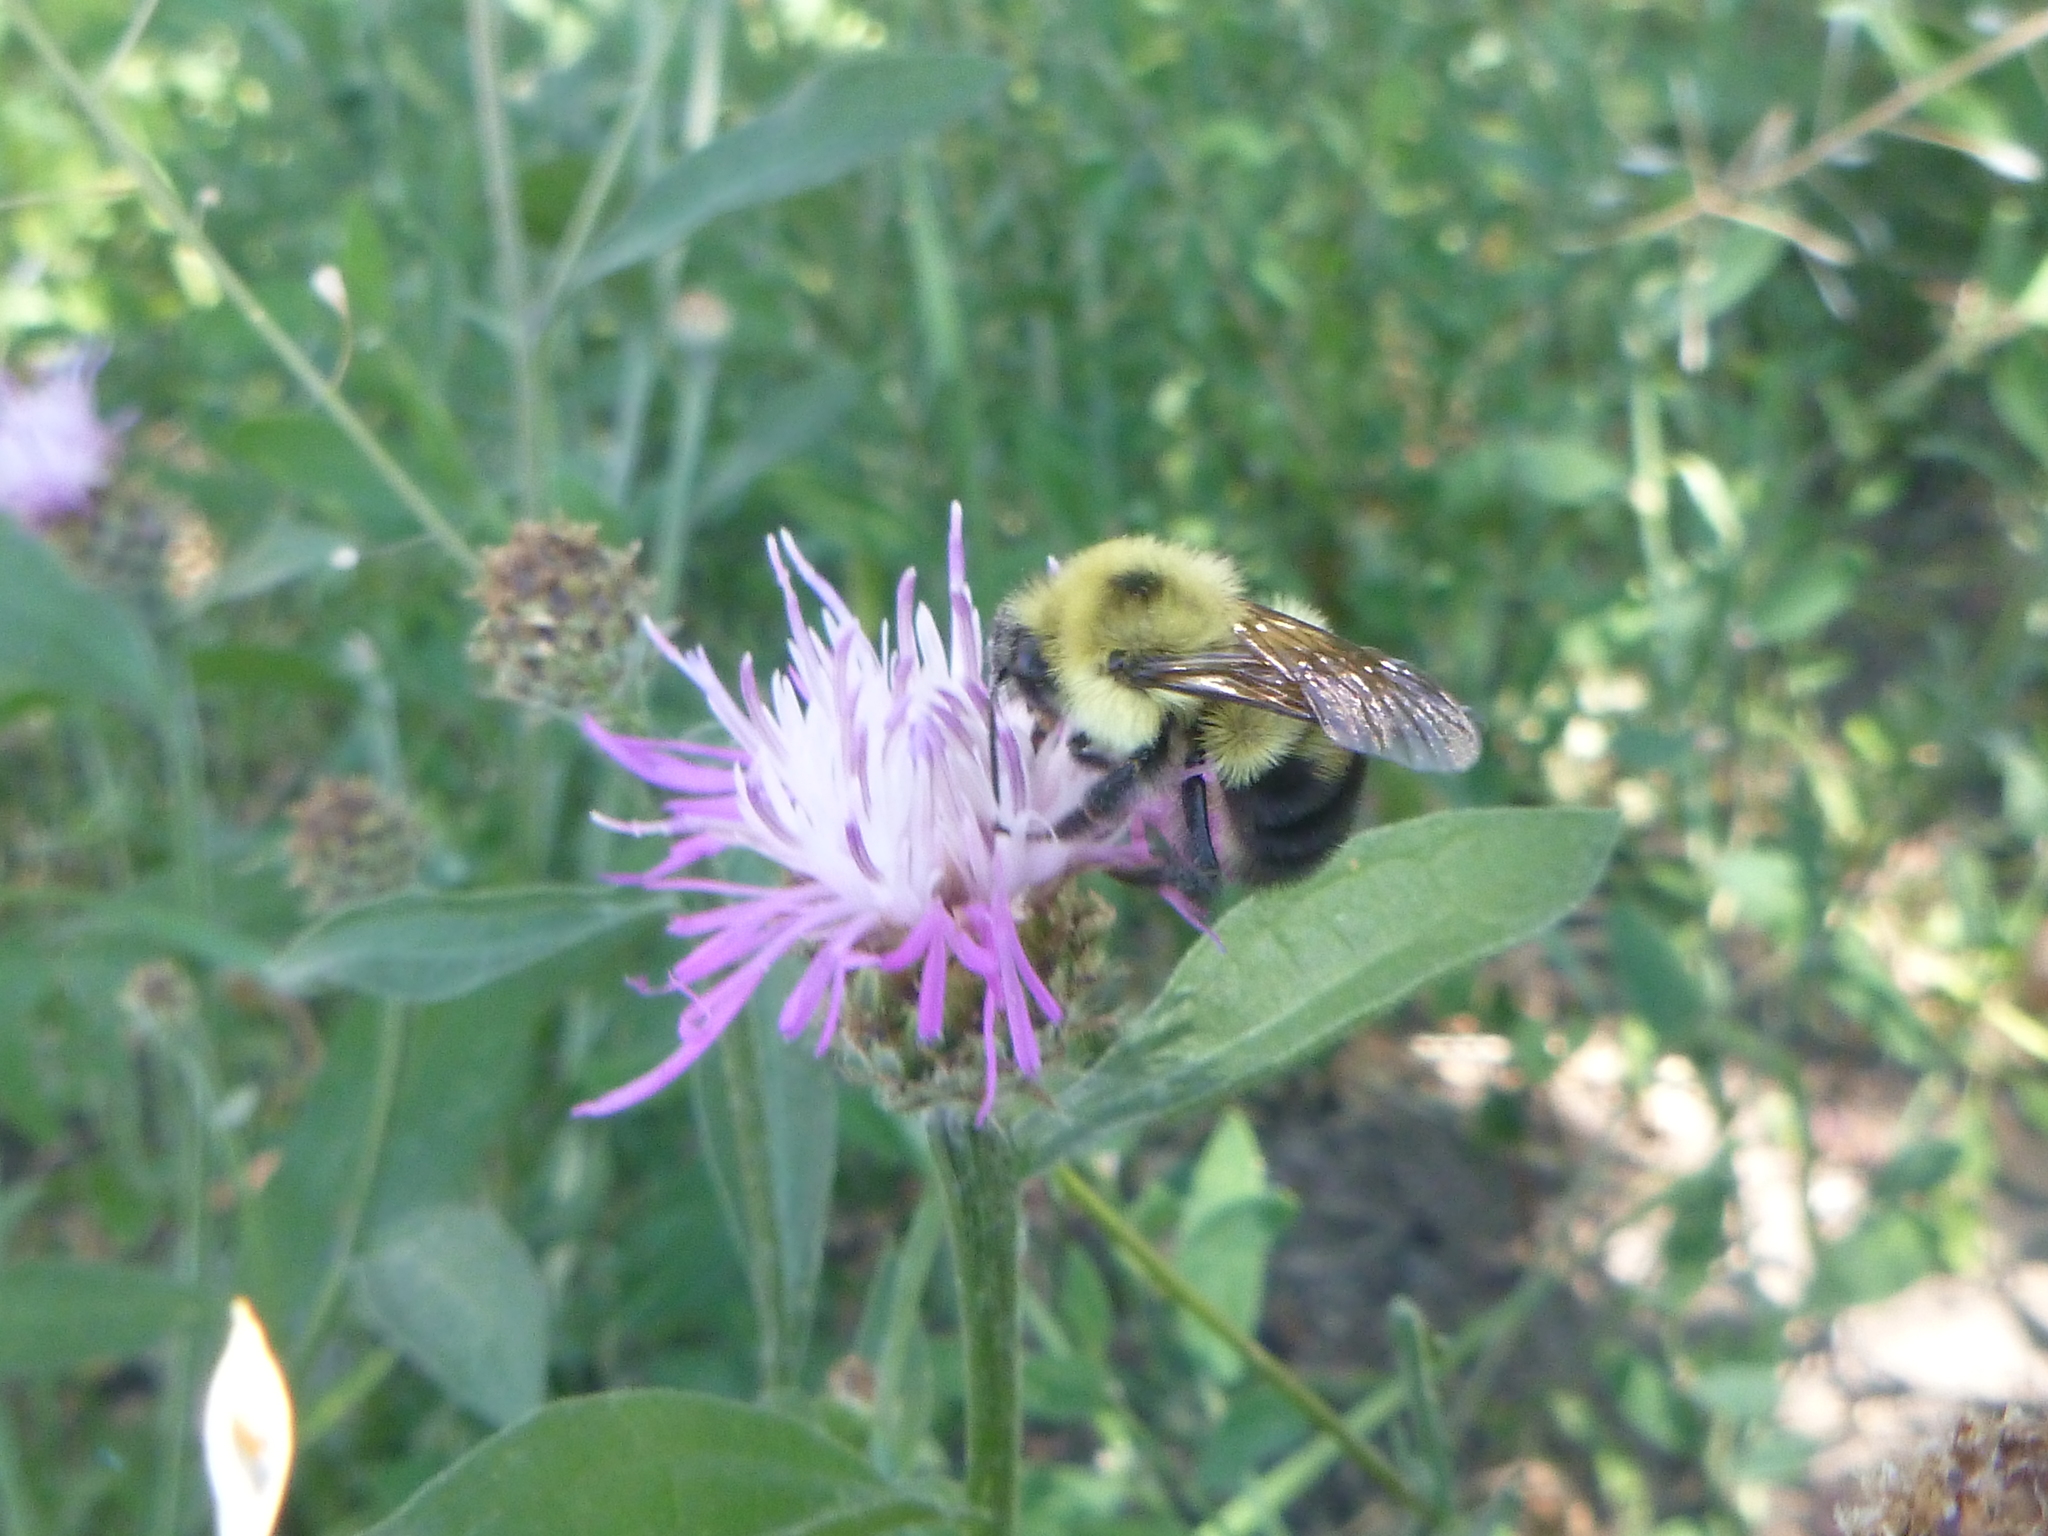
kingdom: Animalia
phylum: Arthropoda
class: Insecta
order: Hymenoptera
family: Apidae
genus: Bombus
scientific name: Bombus bimaculatus
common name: Two-spotted bumble bee
